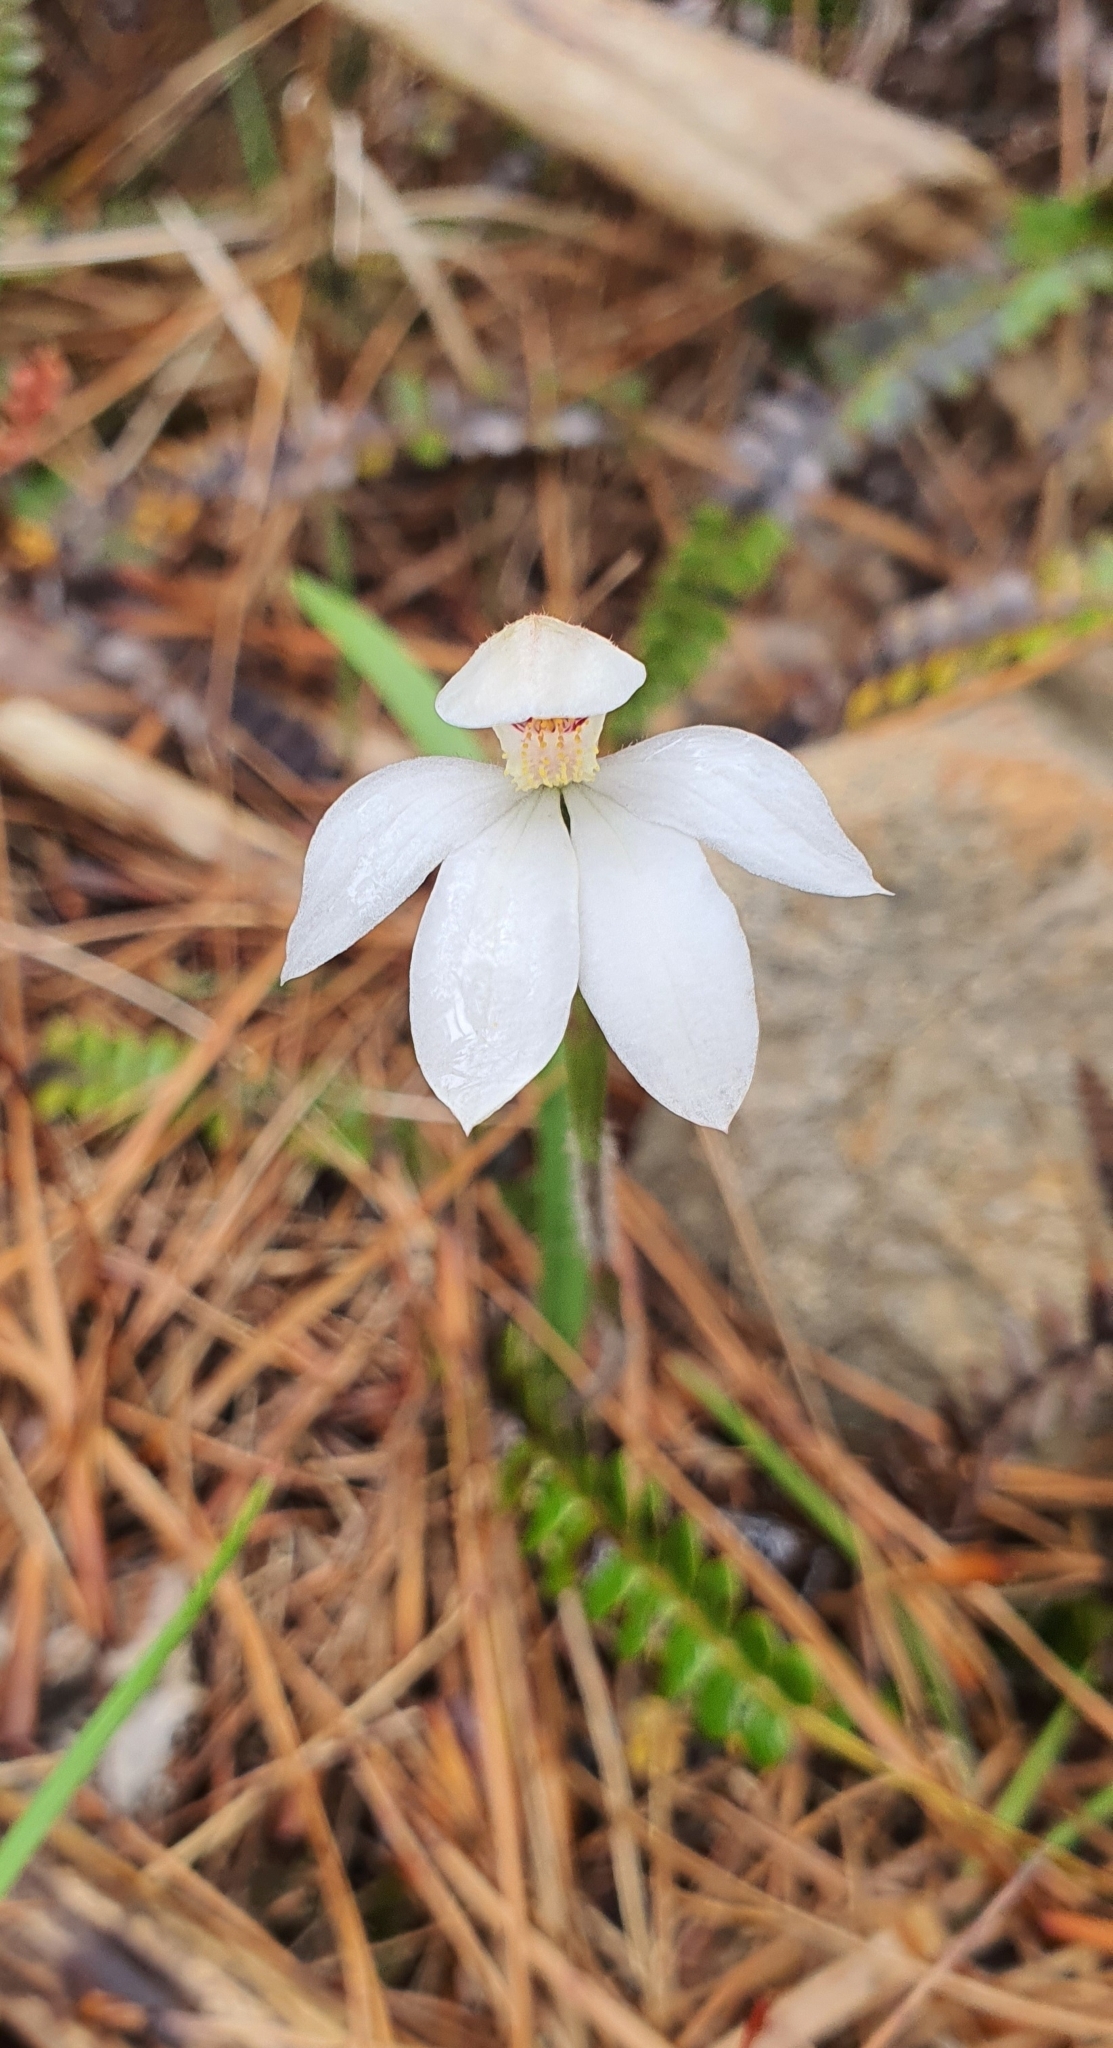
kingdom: Plantae
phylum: Tracheophyta
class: Liliopsida
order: Asparagales
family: Orchidaceae
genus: Caladenia
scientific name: Caladenia lyallii
